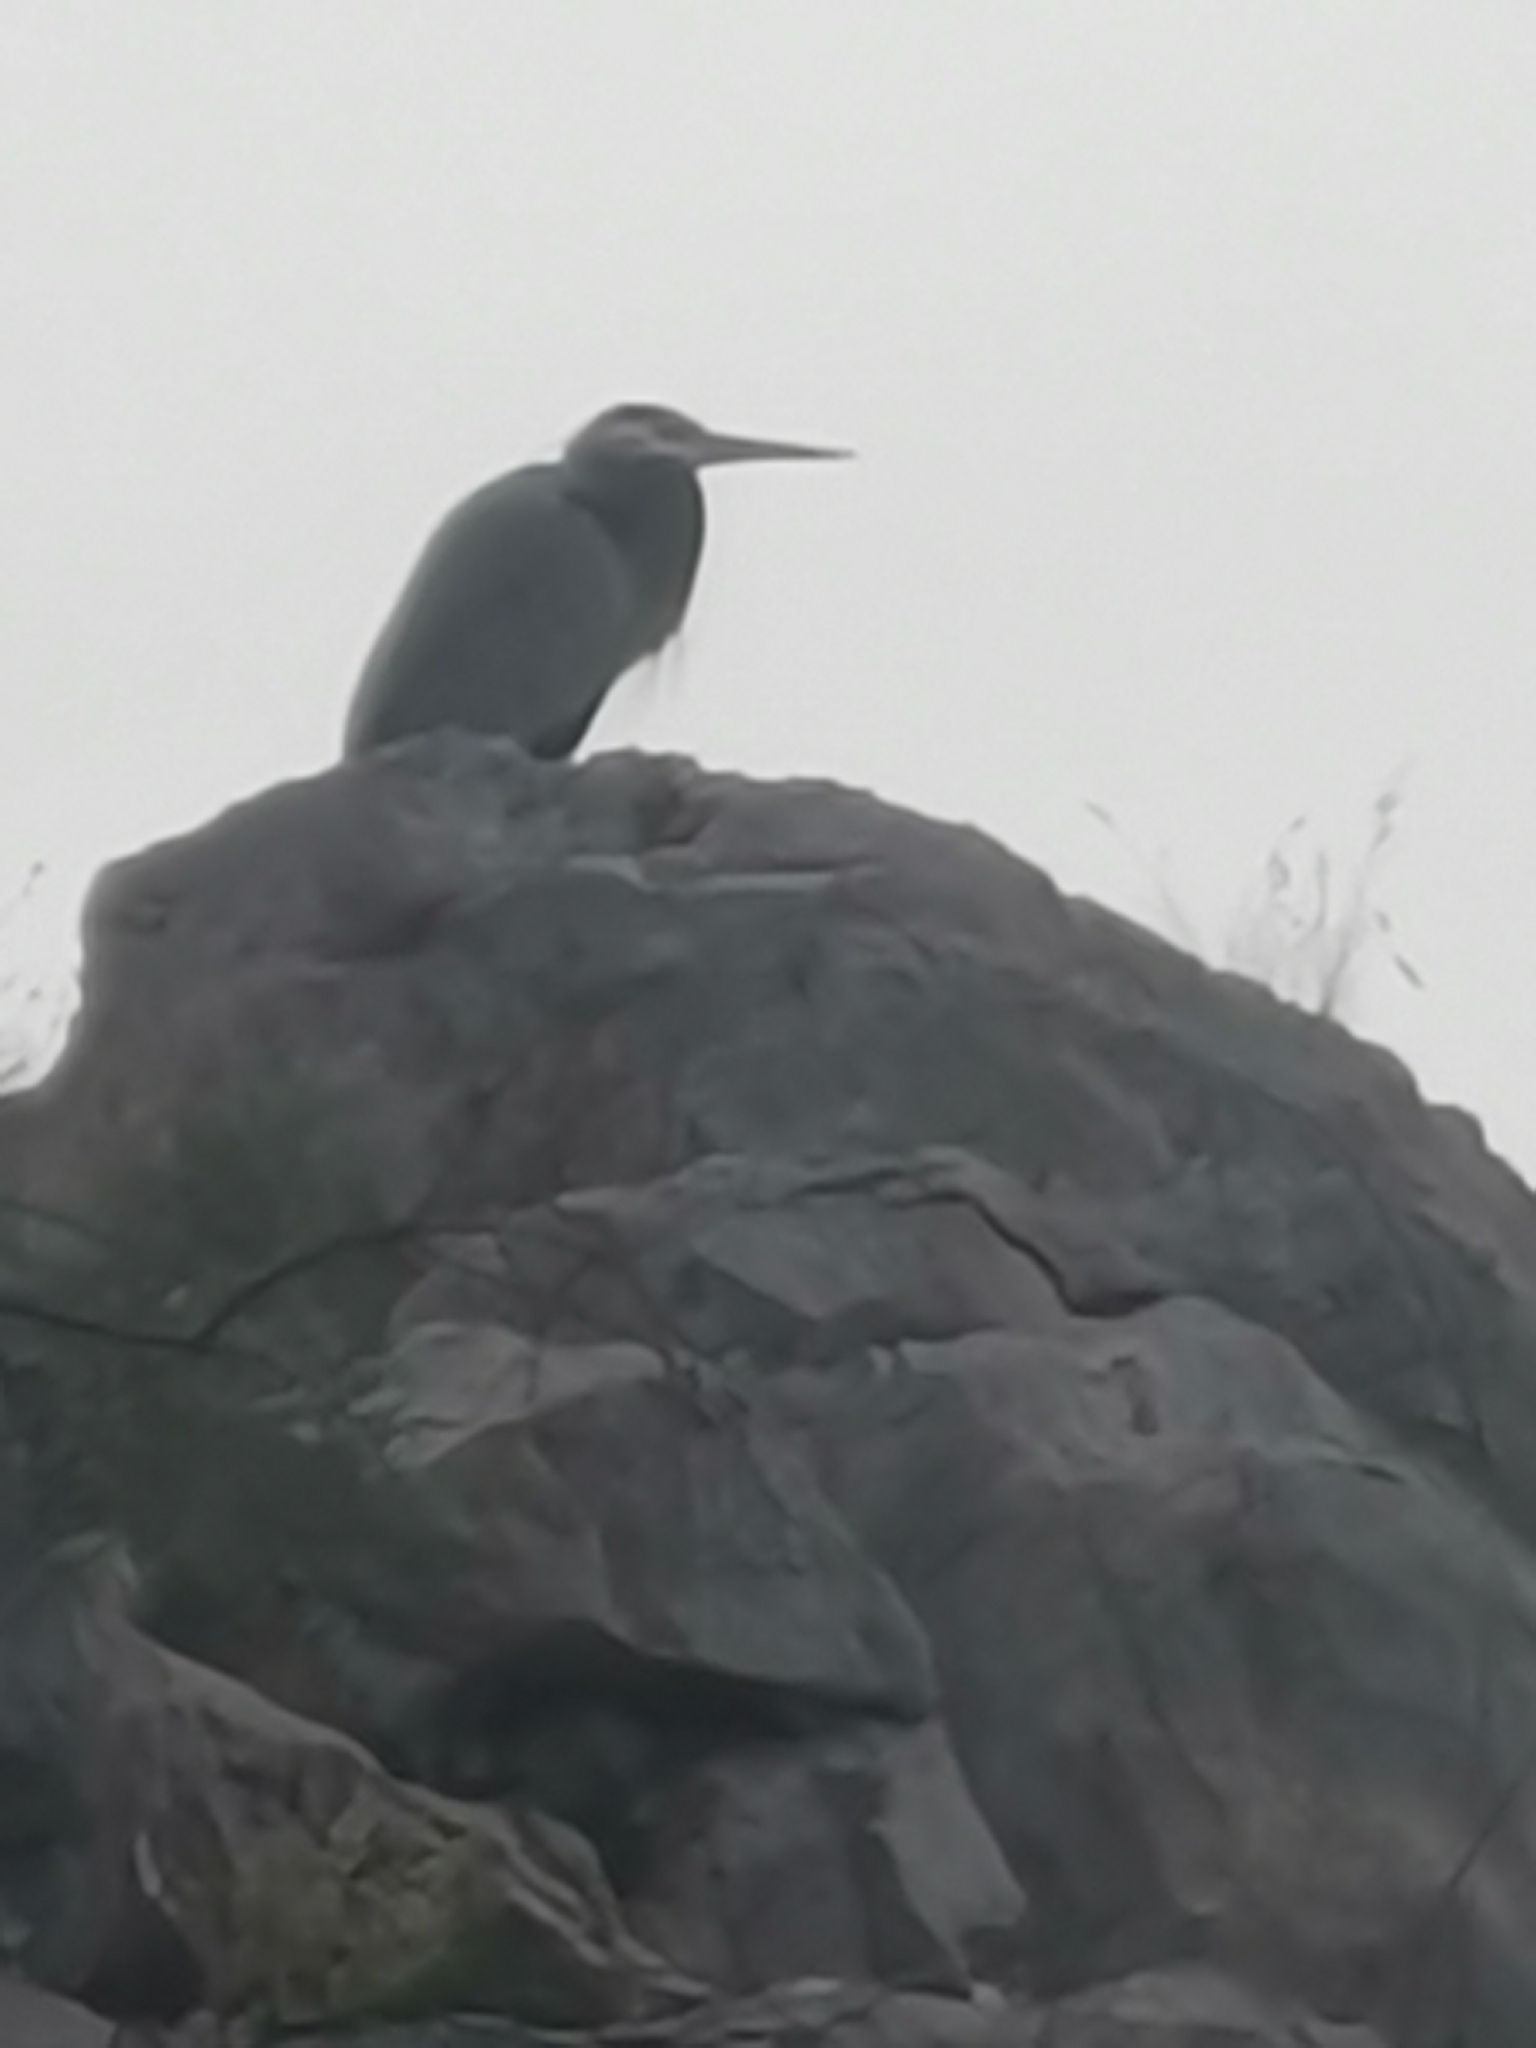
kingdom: Animalia
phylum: Chordata
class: Aves
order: Pelecaniformes
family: Ardeidae
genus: Ardea
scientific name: Ardea herodias
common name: Great blue heron
